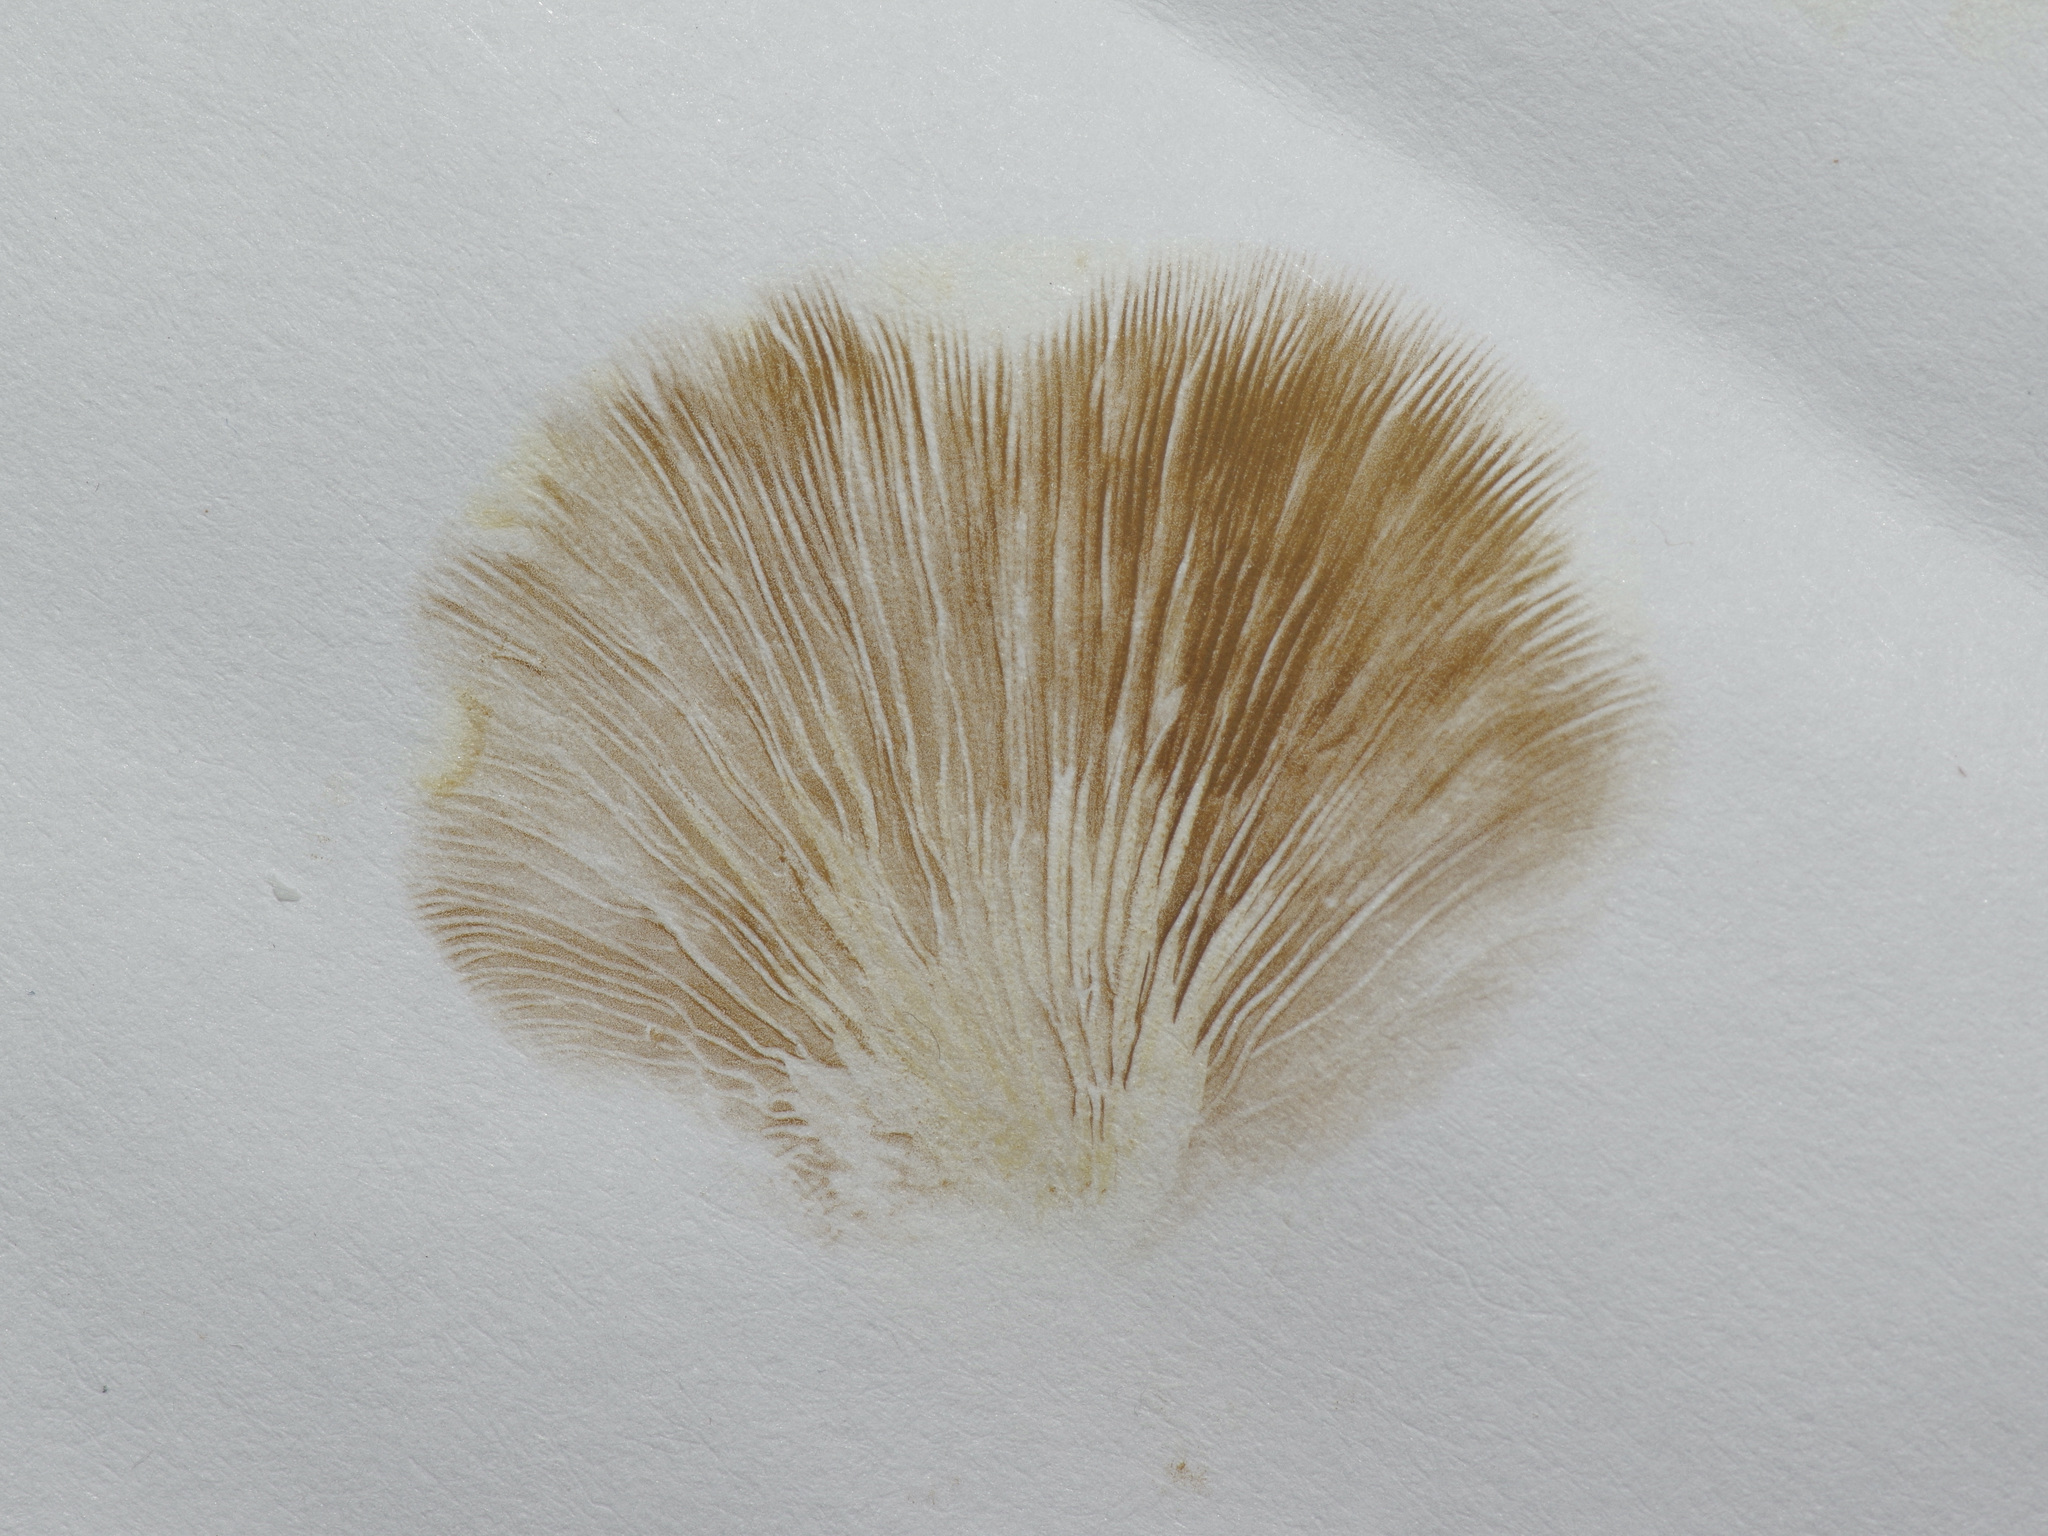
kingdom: Fungi
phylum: Basidiomycota
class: Agaricomycetes
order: Agaricales
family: Crepidotaceae
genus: Crepidotus
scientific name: Crepidotus applanatus
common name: Flat crep
